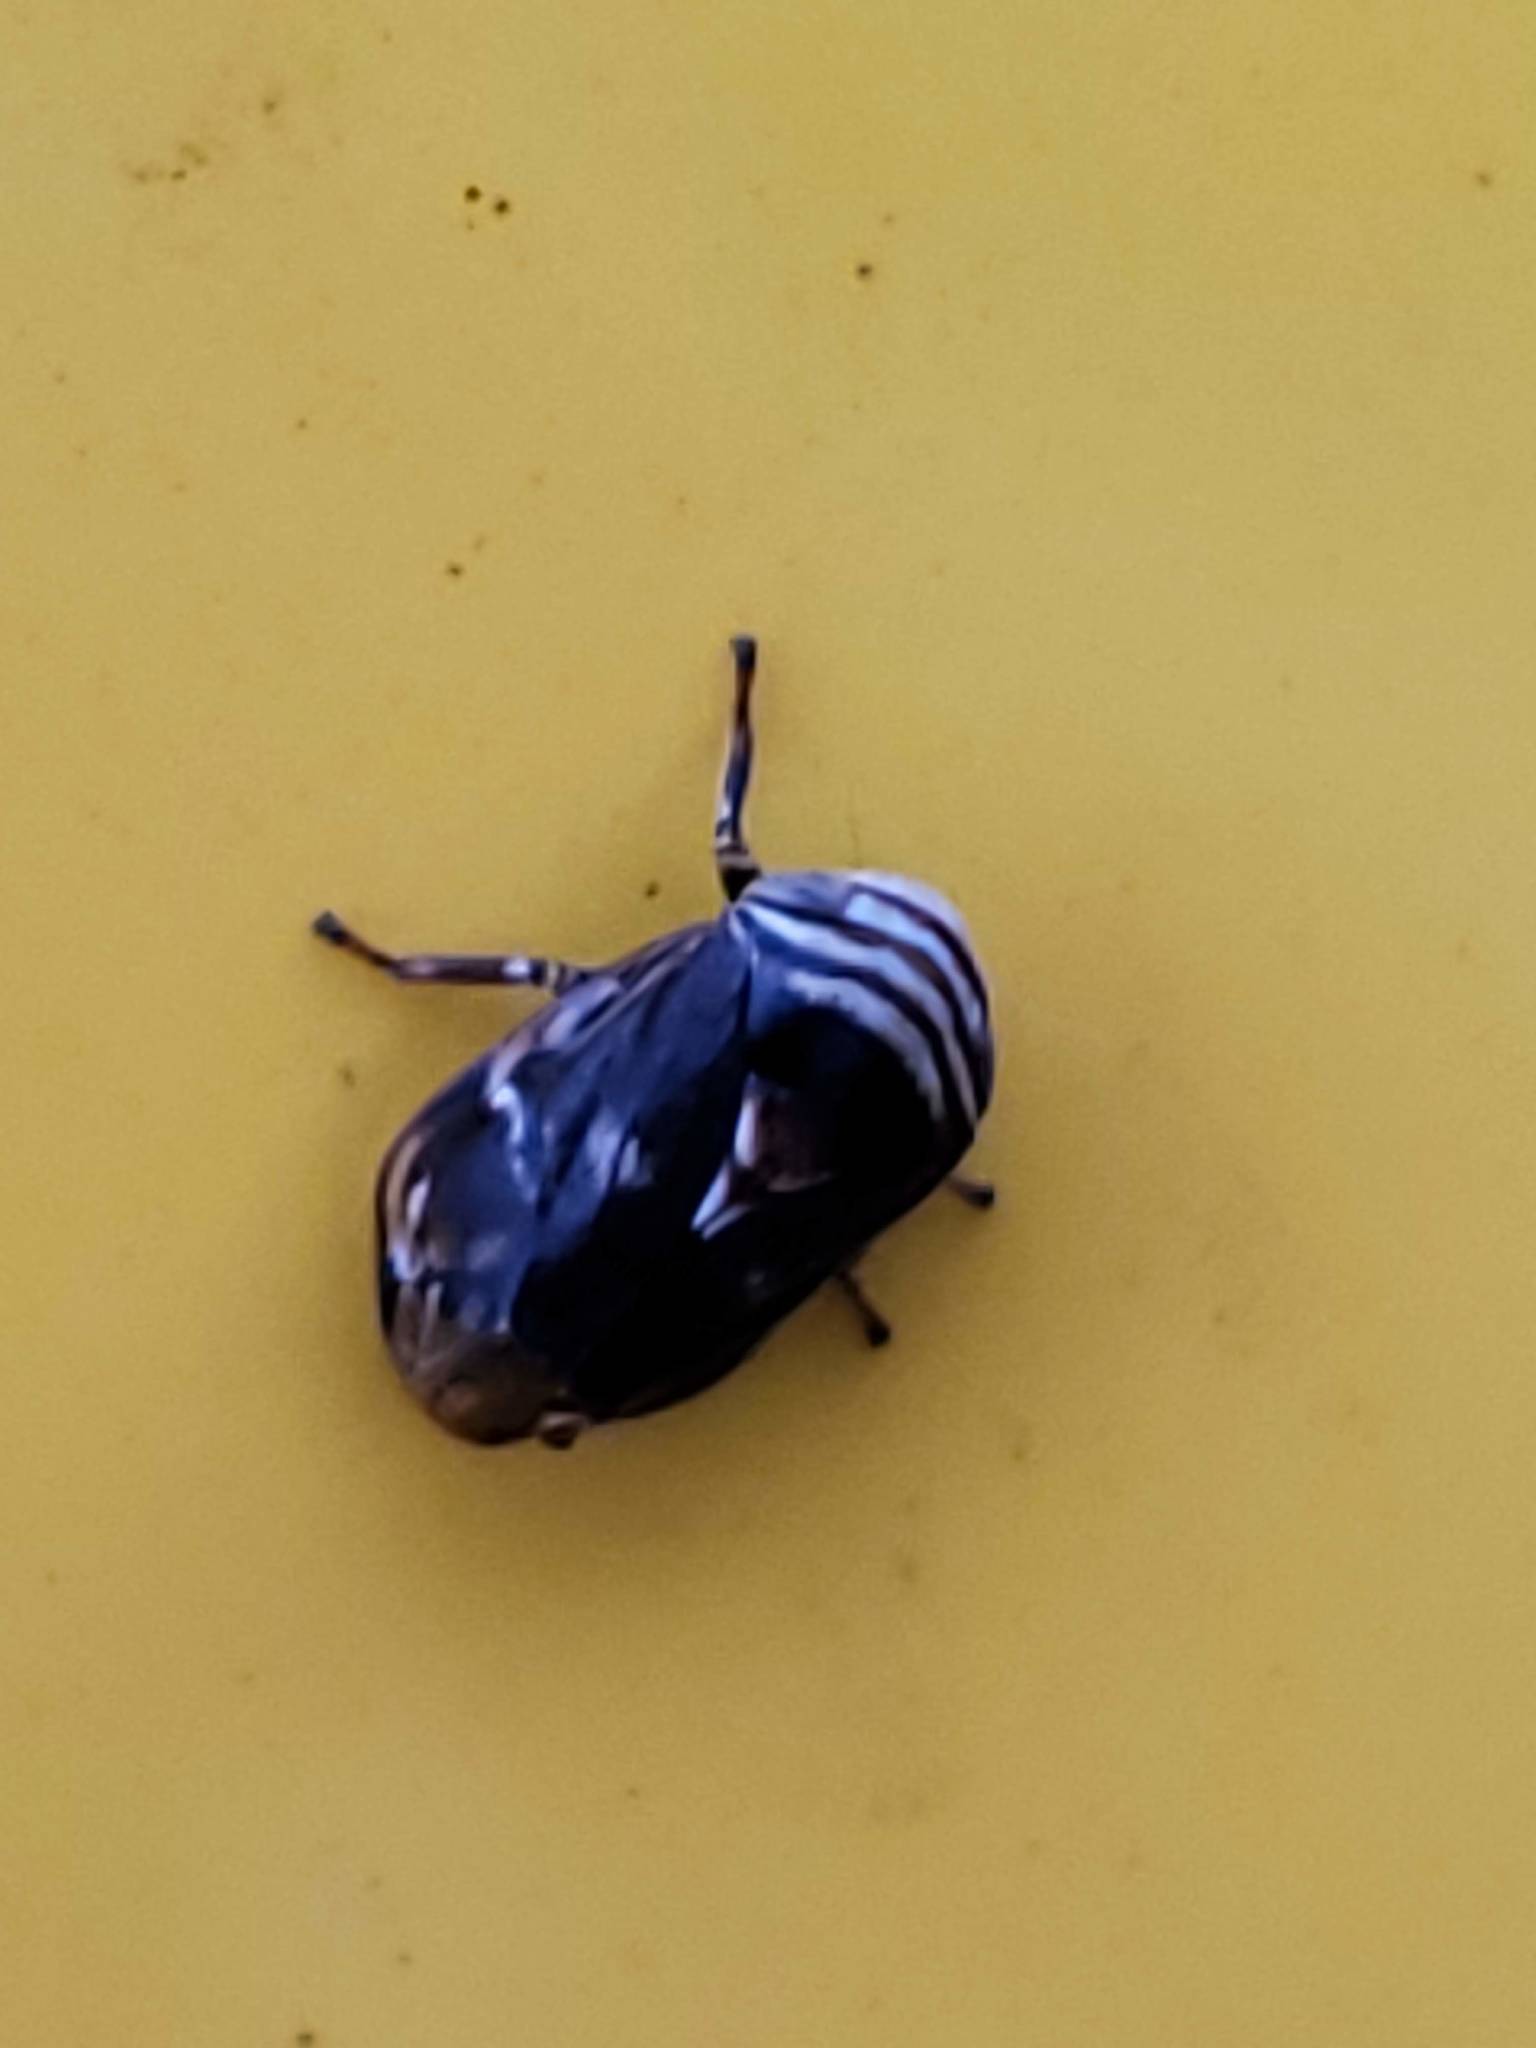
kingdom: Animalia
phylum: Arthropoda
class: Insecta
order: Hemiptera
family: Clastopteridae
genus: Clastoptera
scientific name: Clastoptera obtusa
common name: Alder spittlebug
